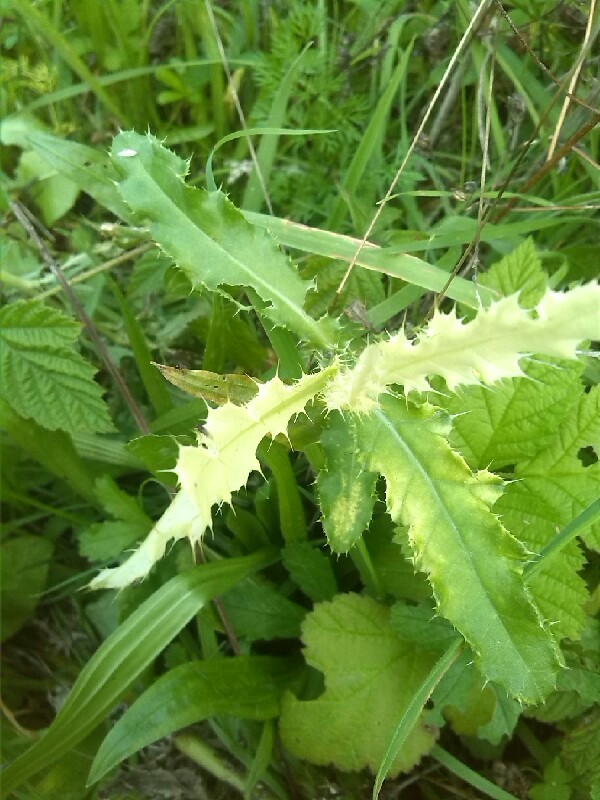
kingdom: Bacteria
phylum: Proteobacteria
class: Gammaproteobacteria
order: Pseudomonadales
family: Pseudomonadaceae
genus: Pseudomonas
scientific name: Pseudomonas syringae
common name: Bacterial speck
